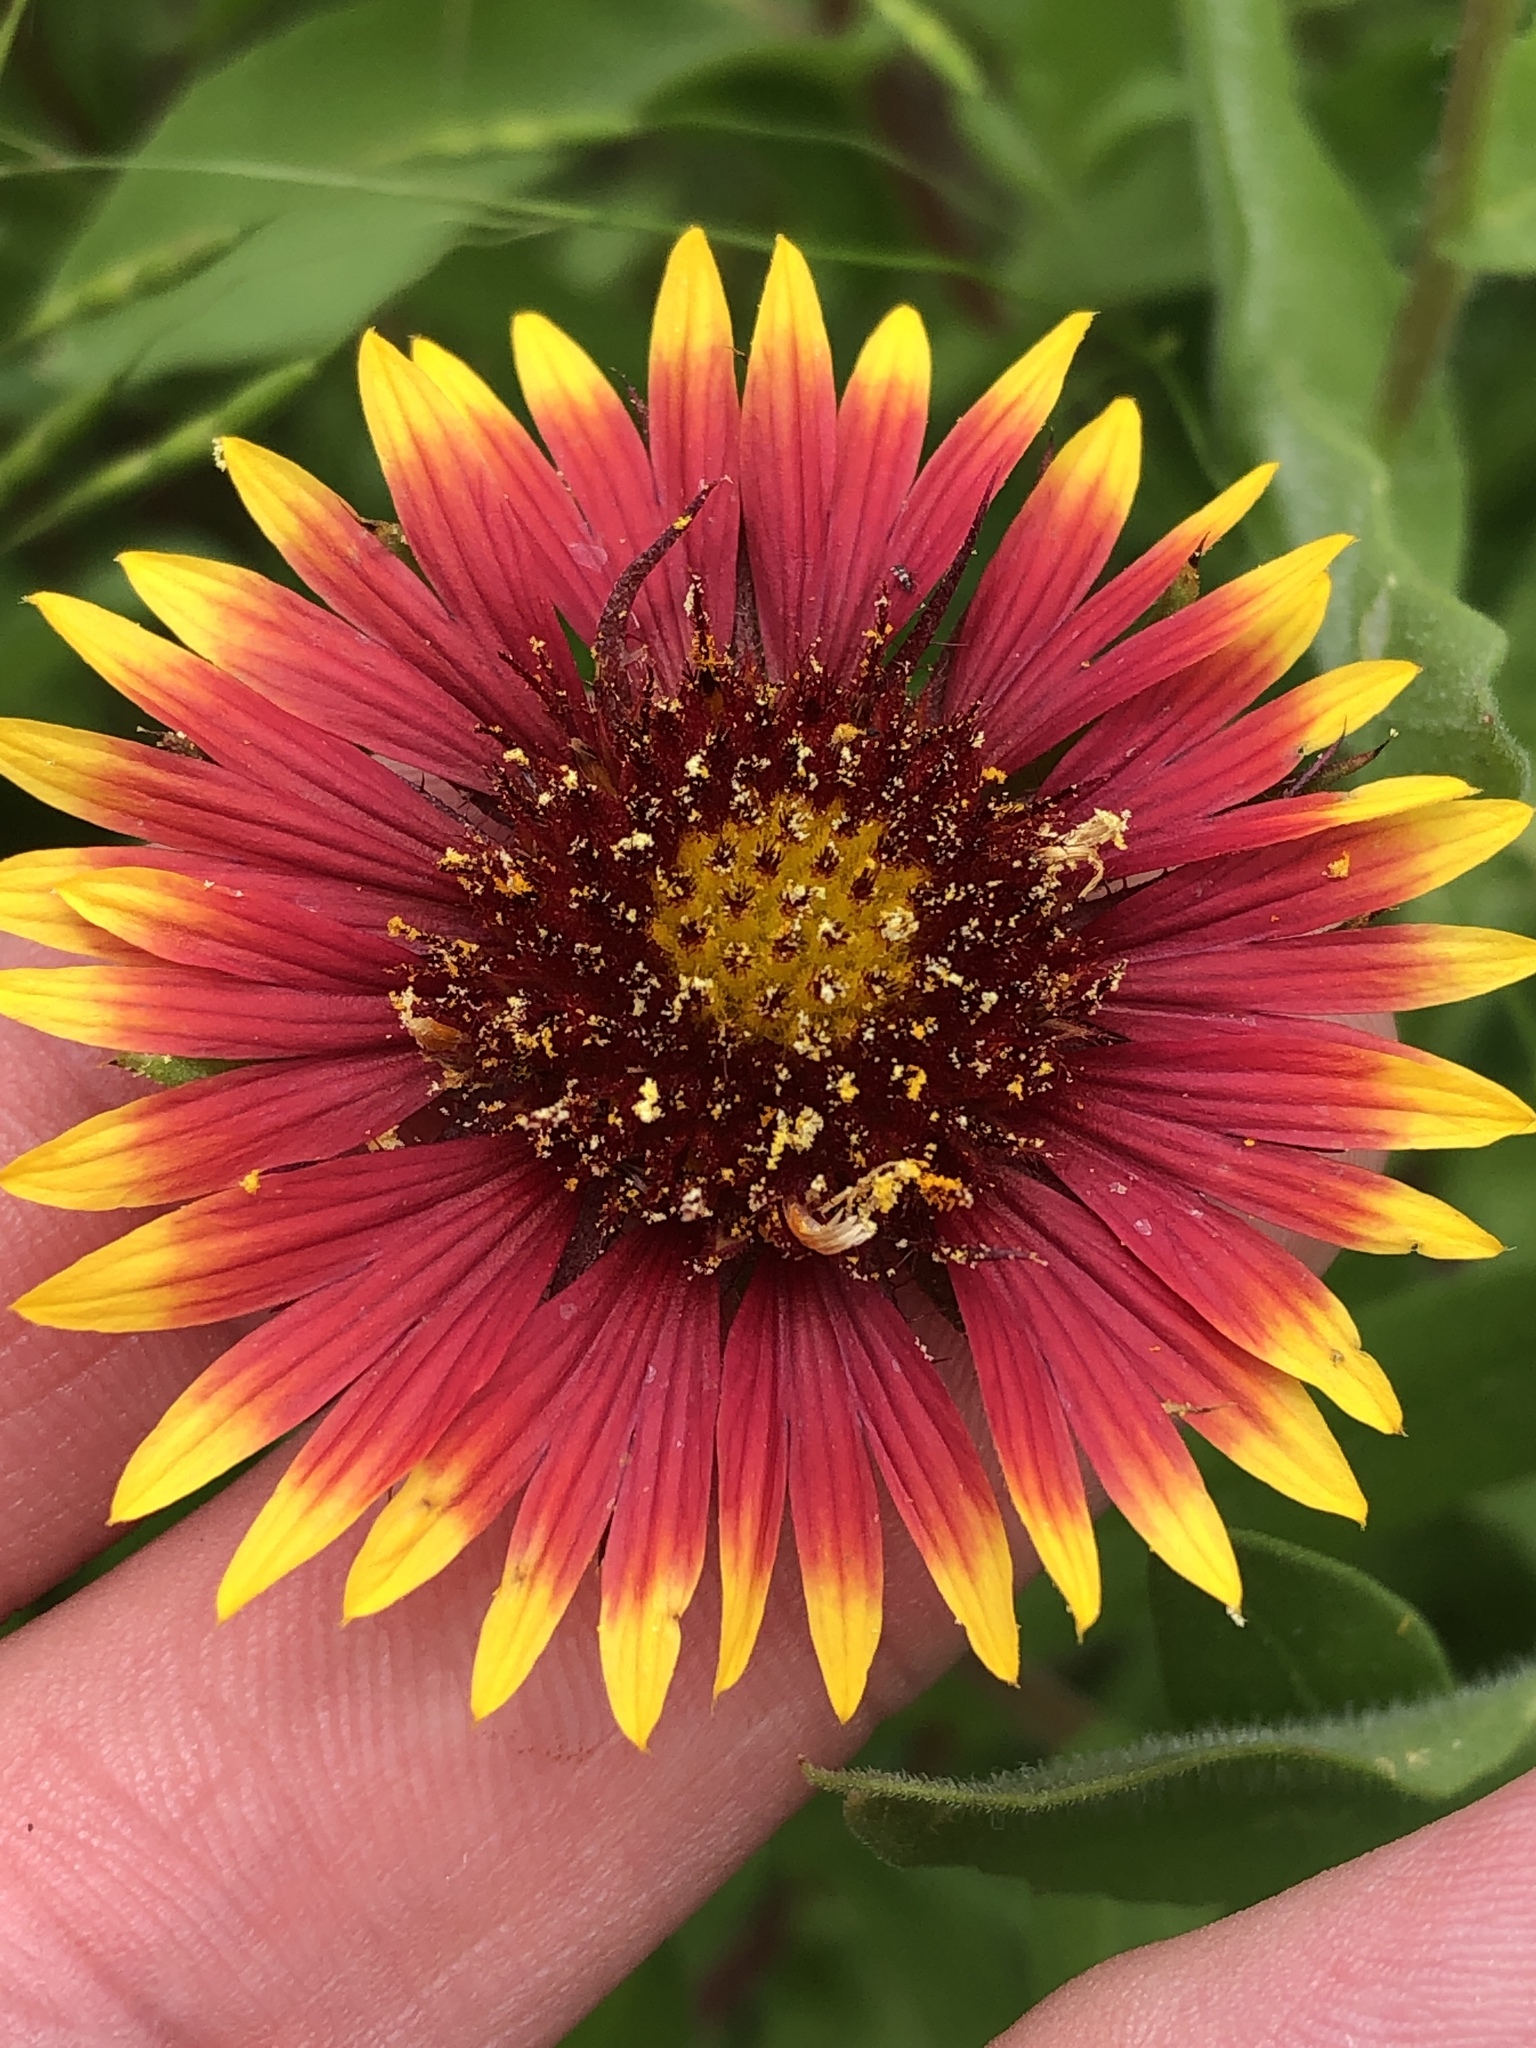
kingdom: Plantae
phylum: Tracheophyta
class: Magnoliopsida
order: Asterales
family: Asteraceae
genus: Gaillardia
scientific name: Gaillardia pulchella
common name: Firewheel
